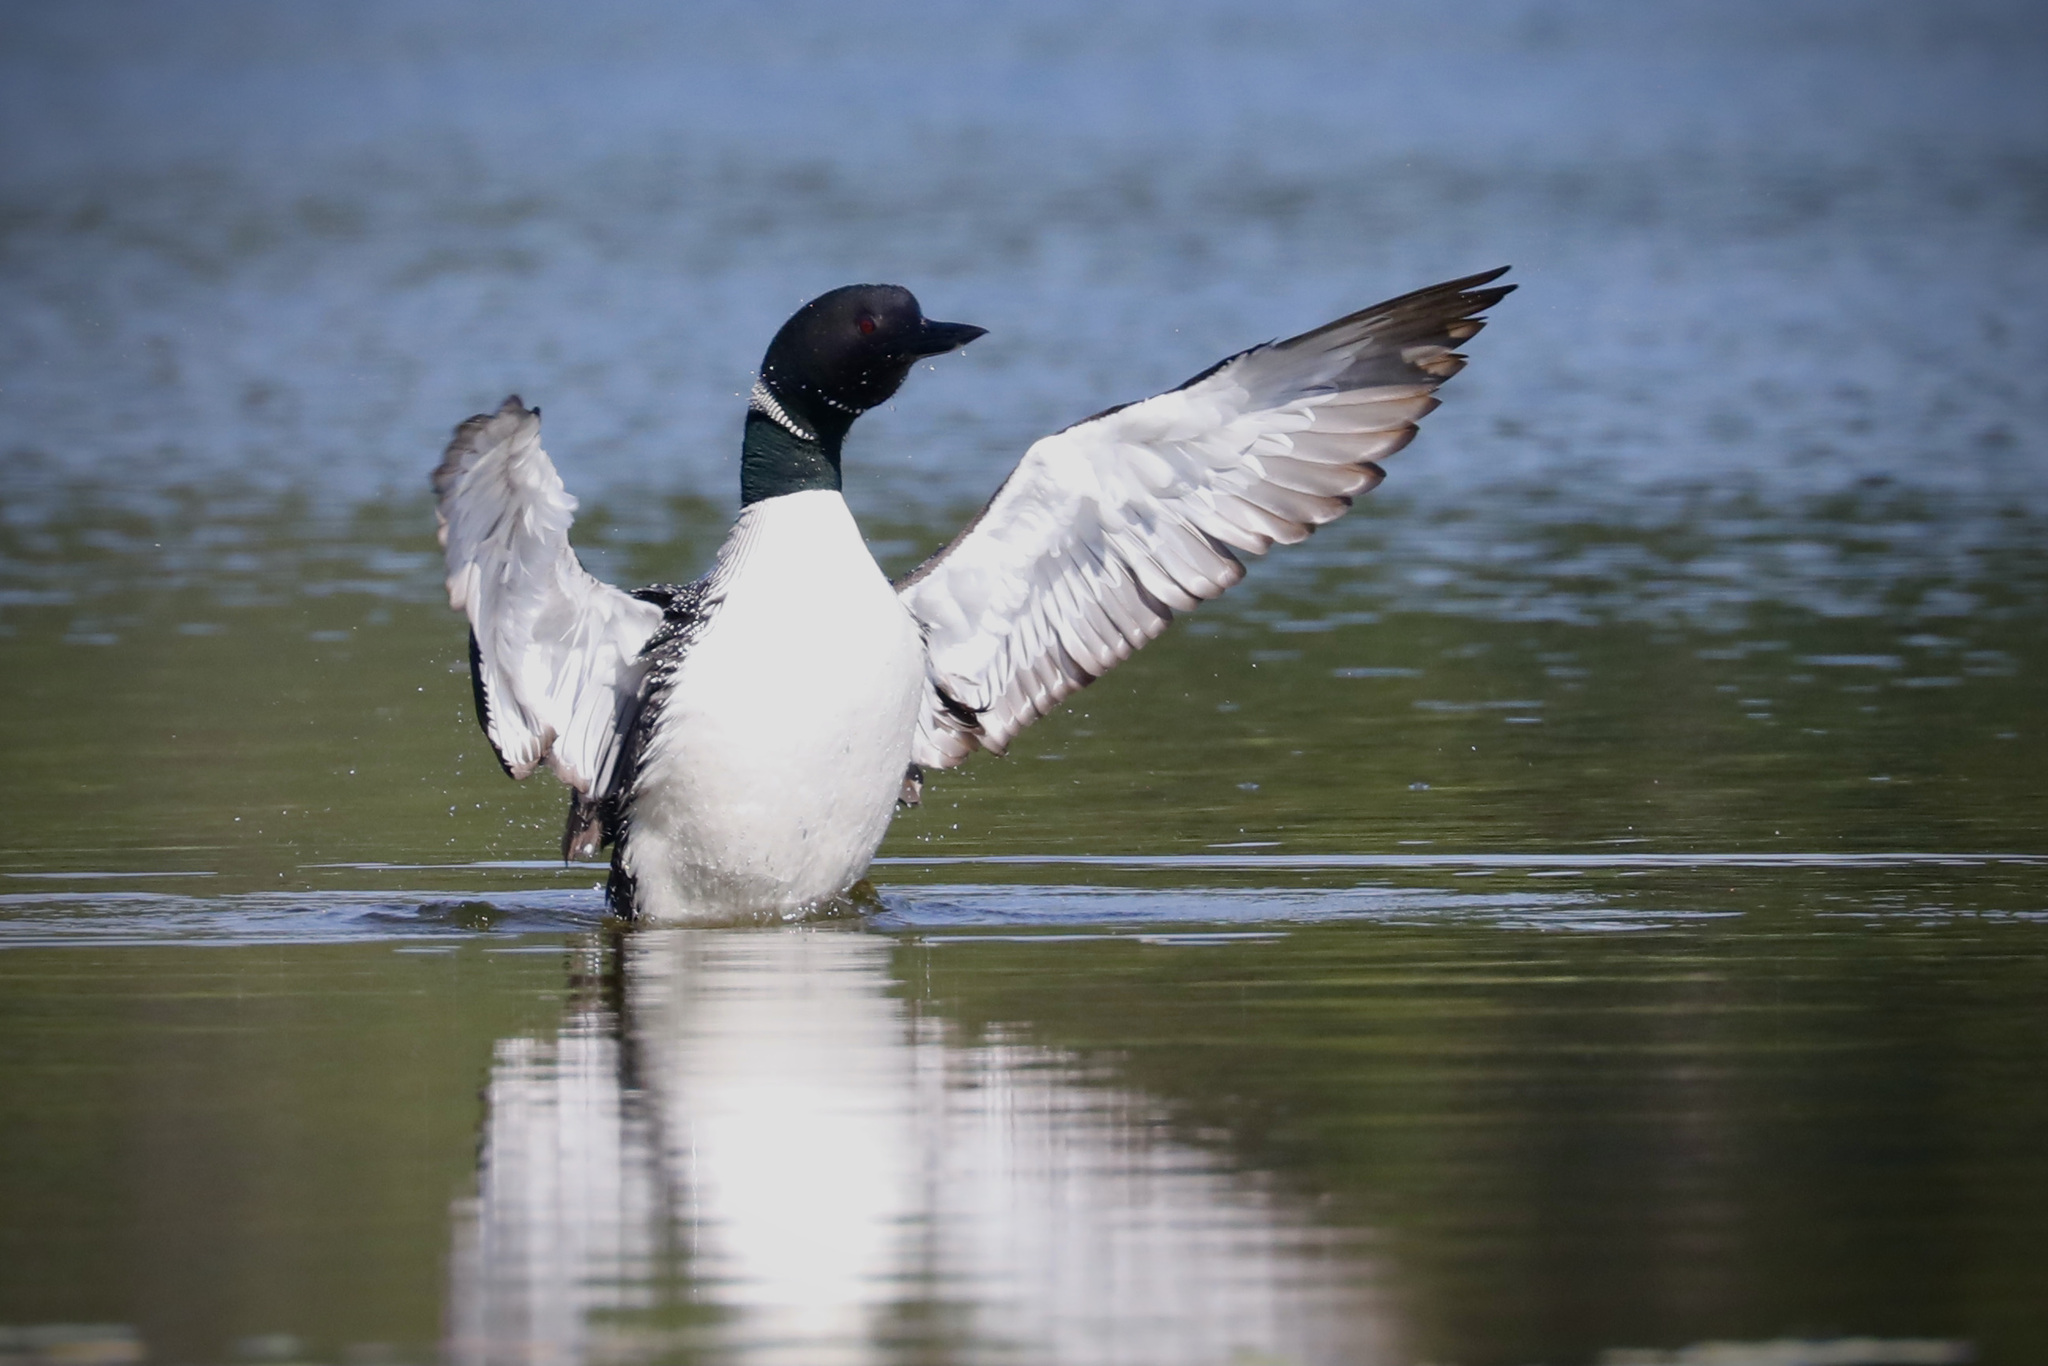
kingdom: Animalia
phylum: Chordata
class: Aves
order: Gaviiformes
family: Gaviidae
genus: Gavia
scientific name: Gavia immer
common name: Common loon
